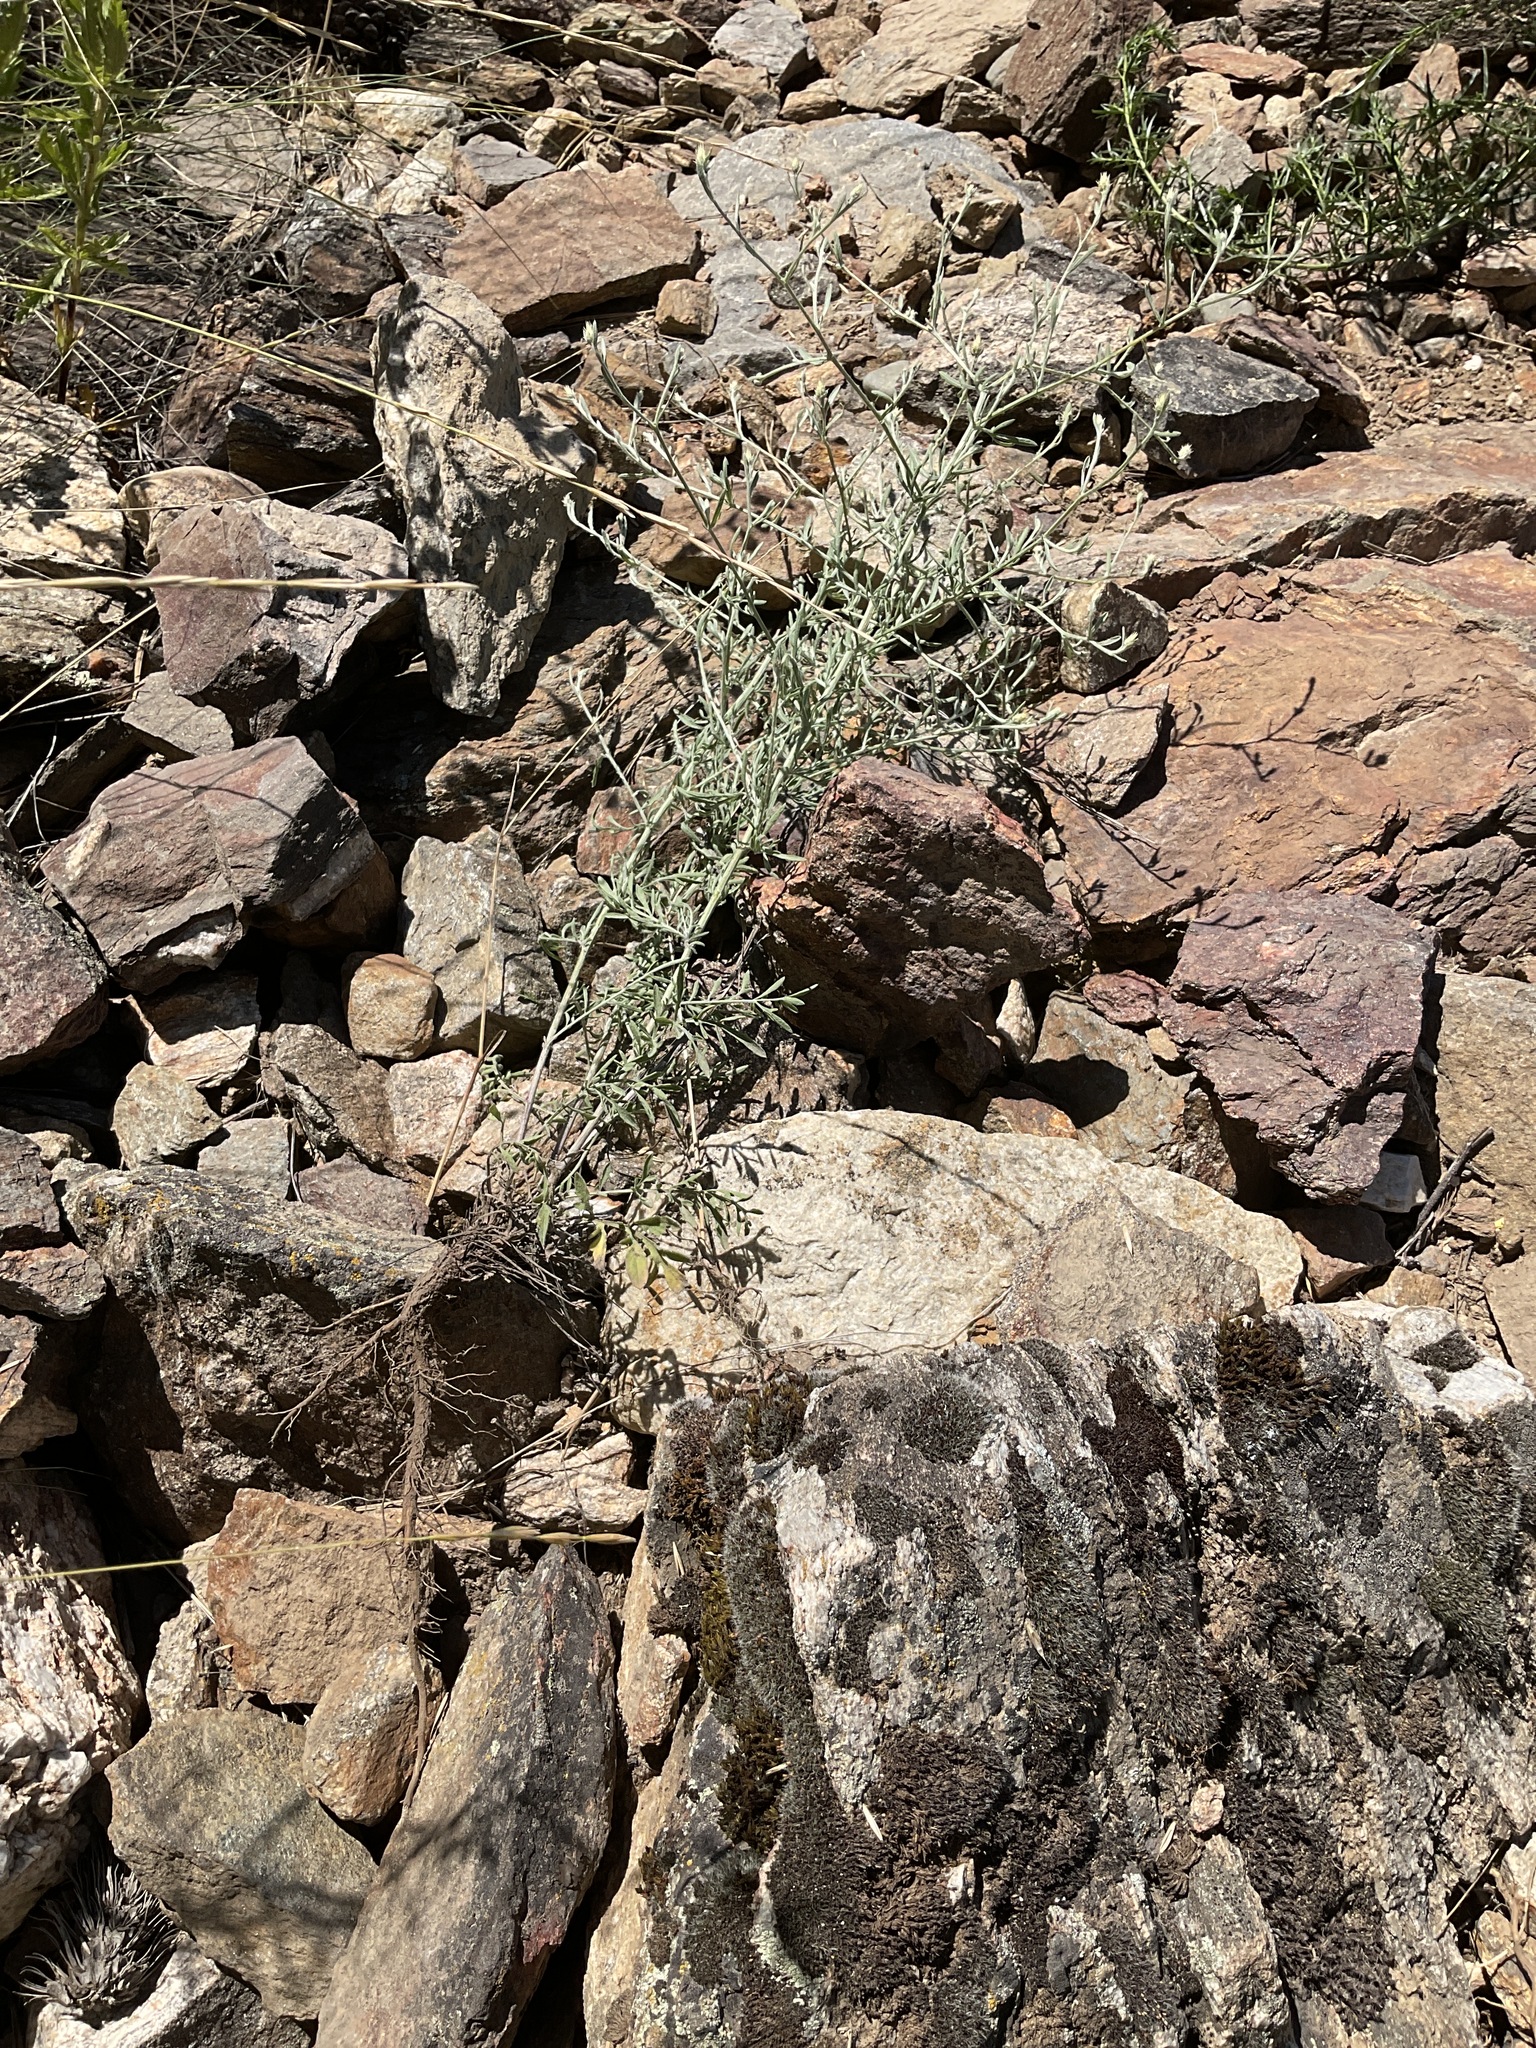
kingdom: Plantae
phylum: Tracheophyta
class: Magnoliopsida
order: Asterales
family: Asteraceae
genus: Centaurea
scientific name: Centaurea diffusa
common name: Diffuse knapweed
